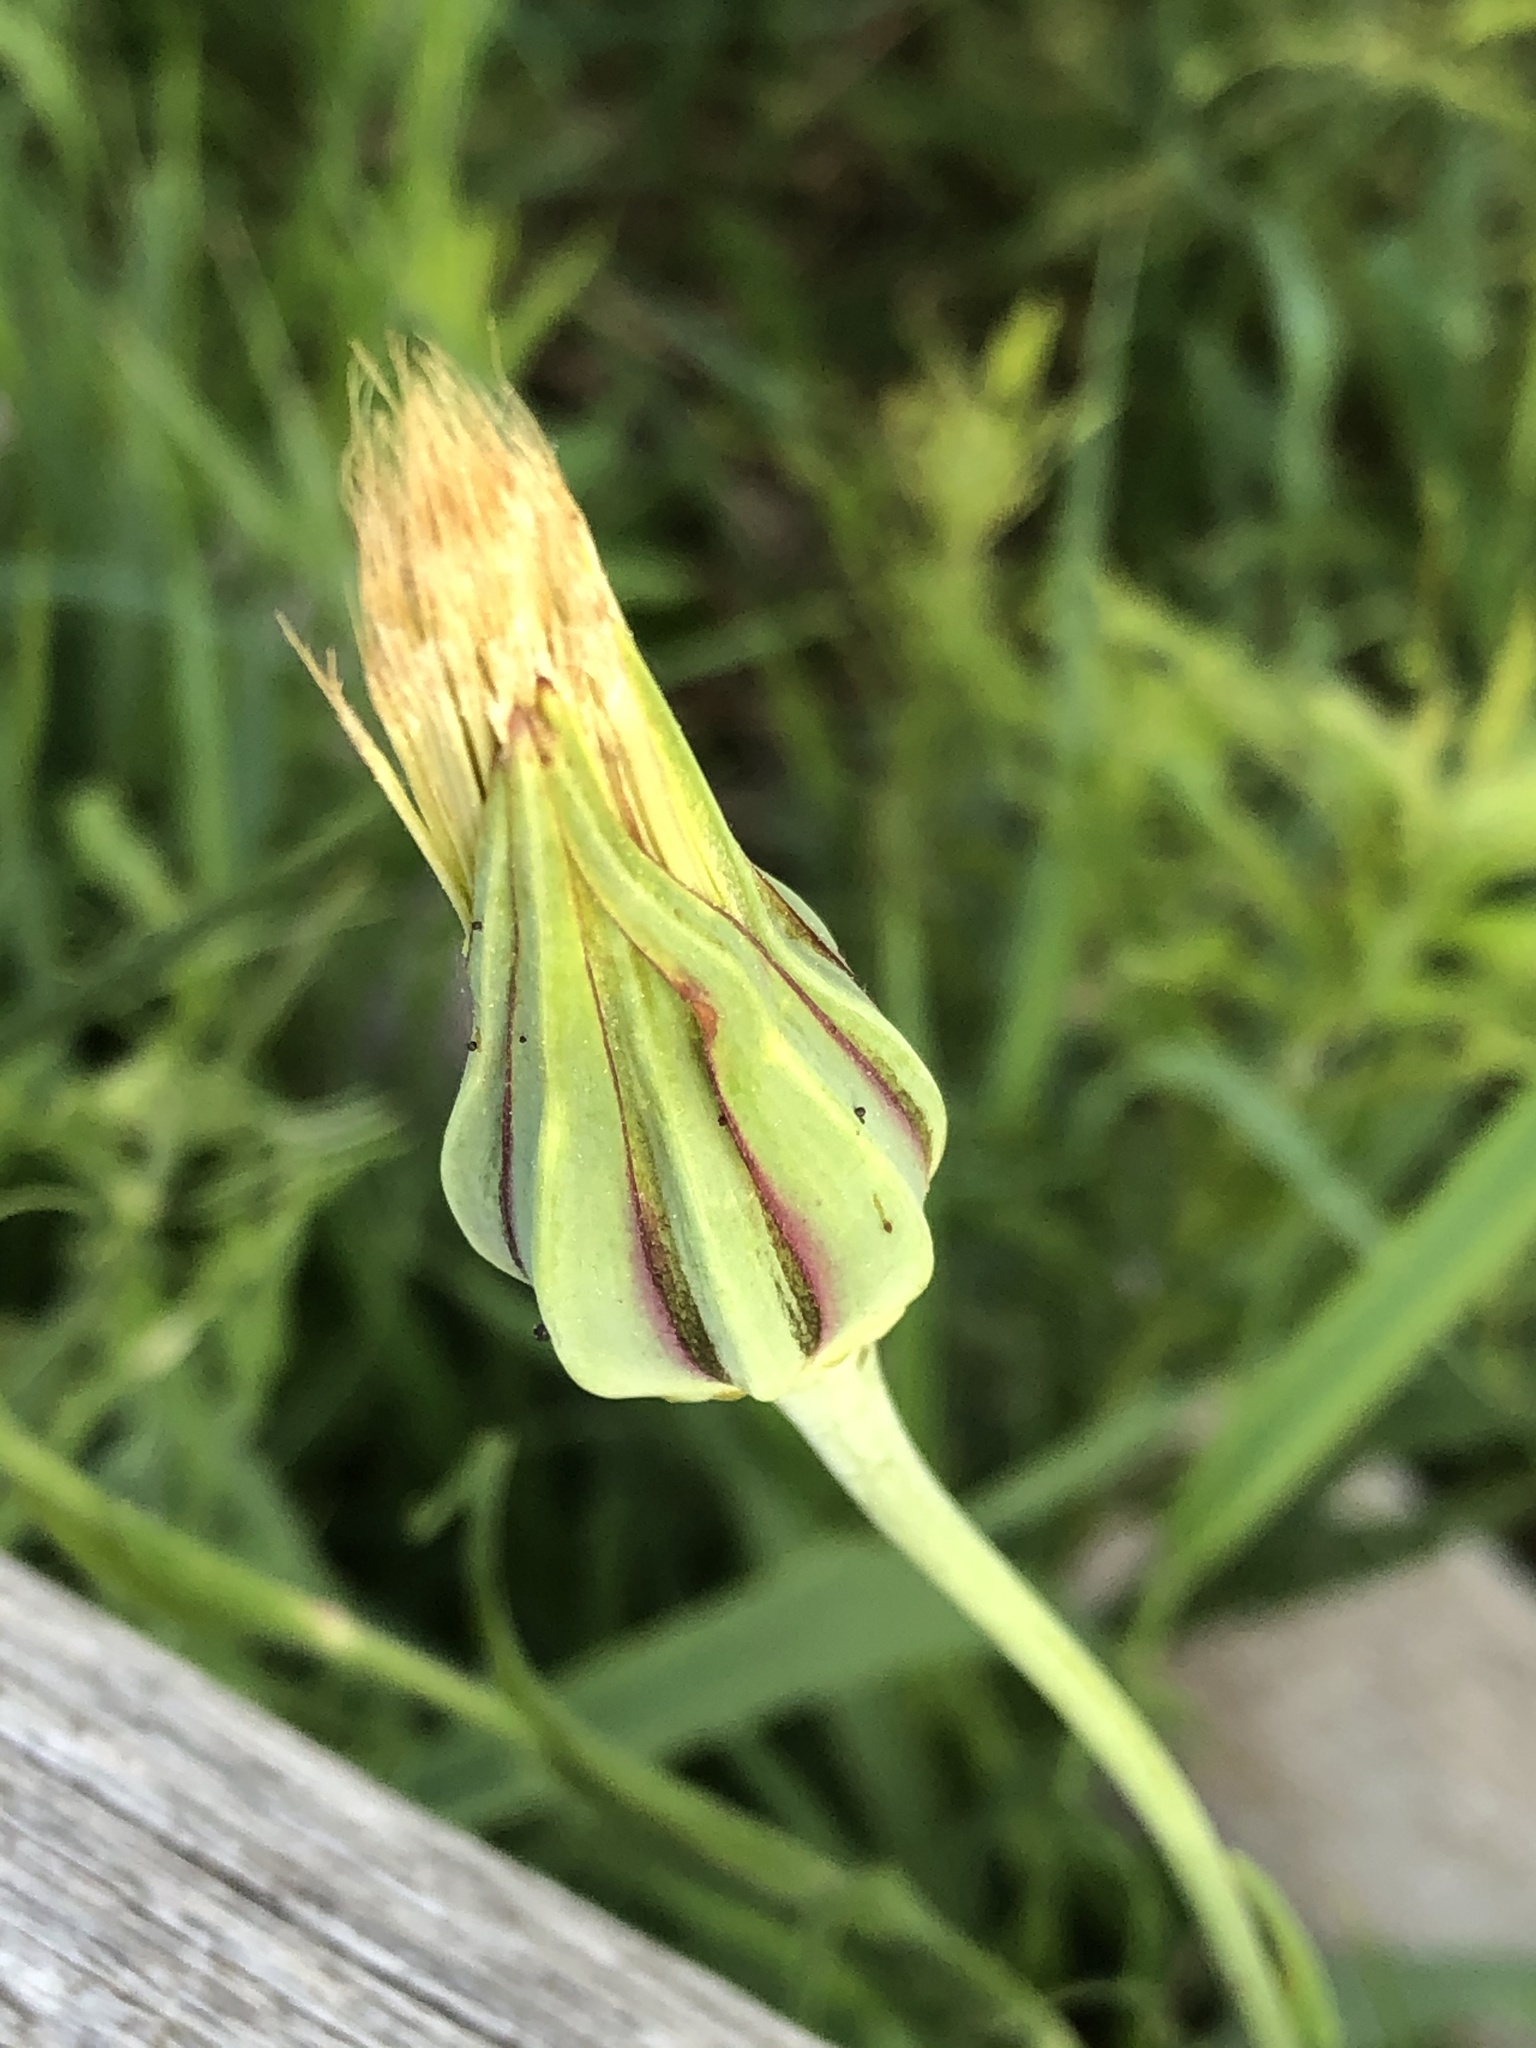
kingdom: Plantae
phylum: Tracheophyta
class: Magnoliopsida
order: Asterales
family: Asteraceae
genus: Tragopogon
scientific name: Tragopogon pratensis
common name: Goat's-beard
